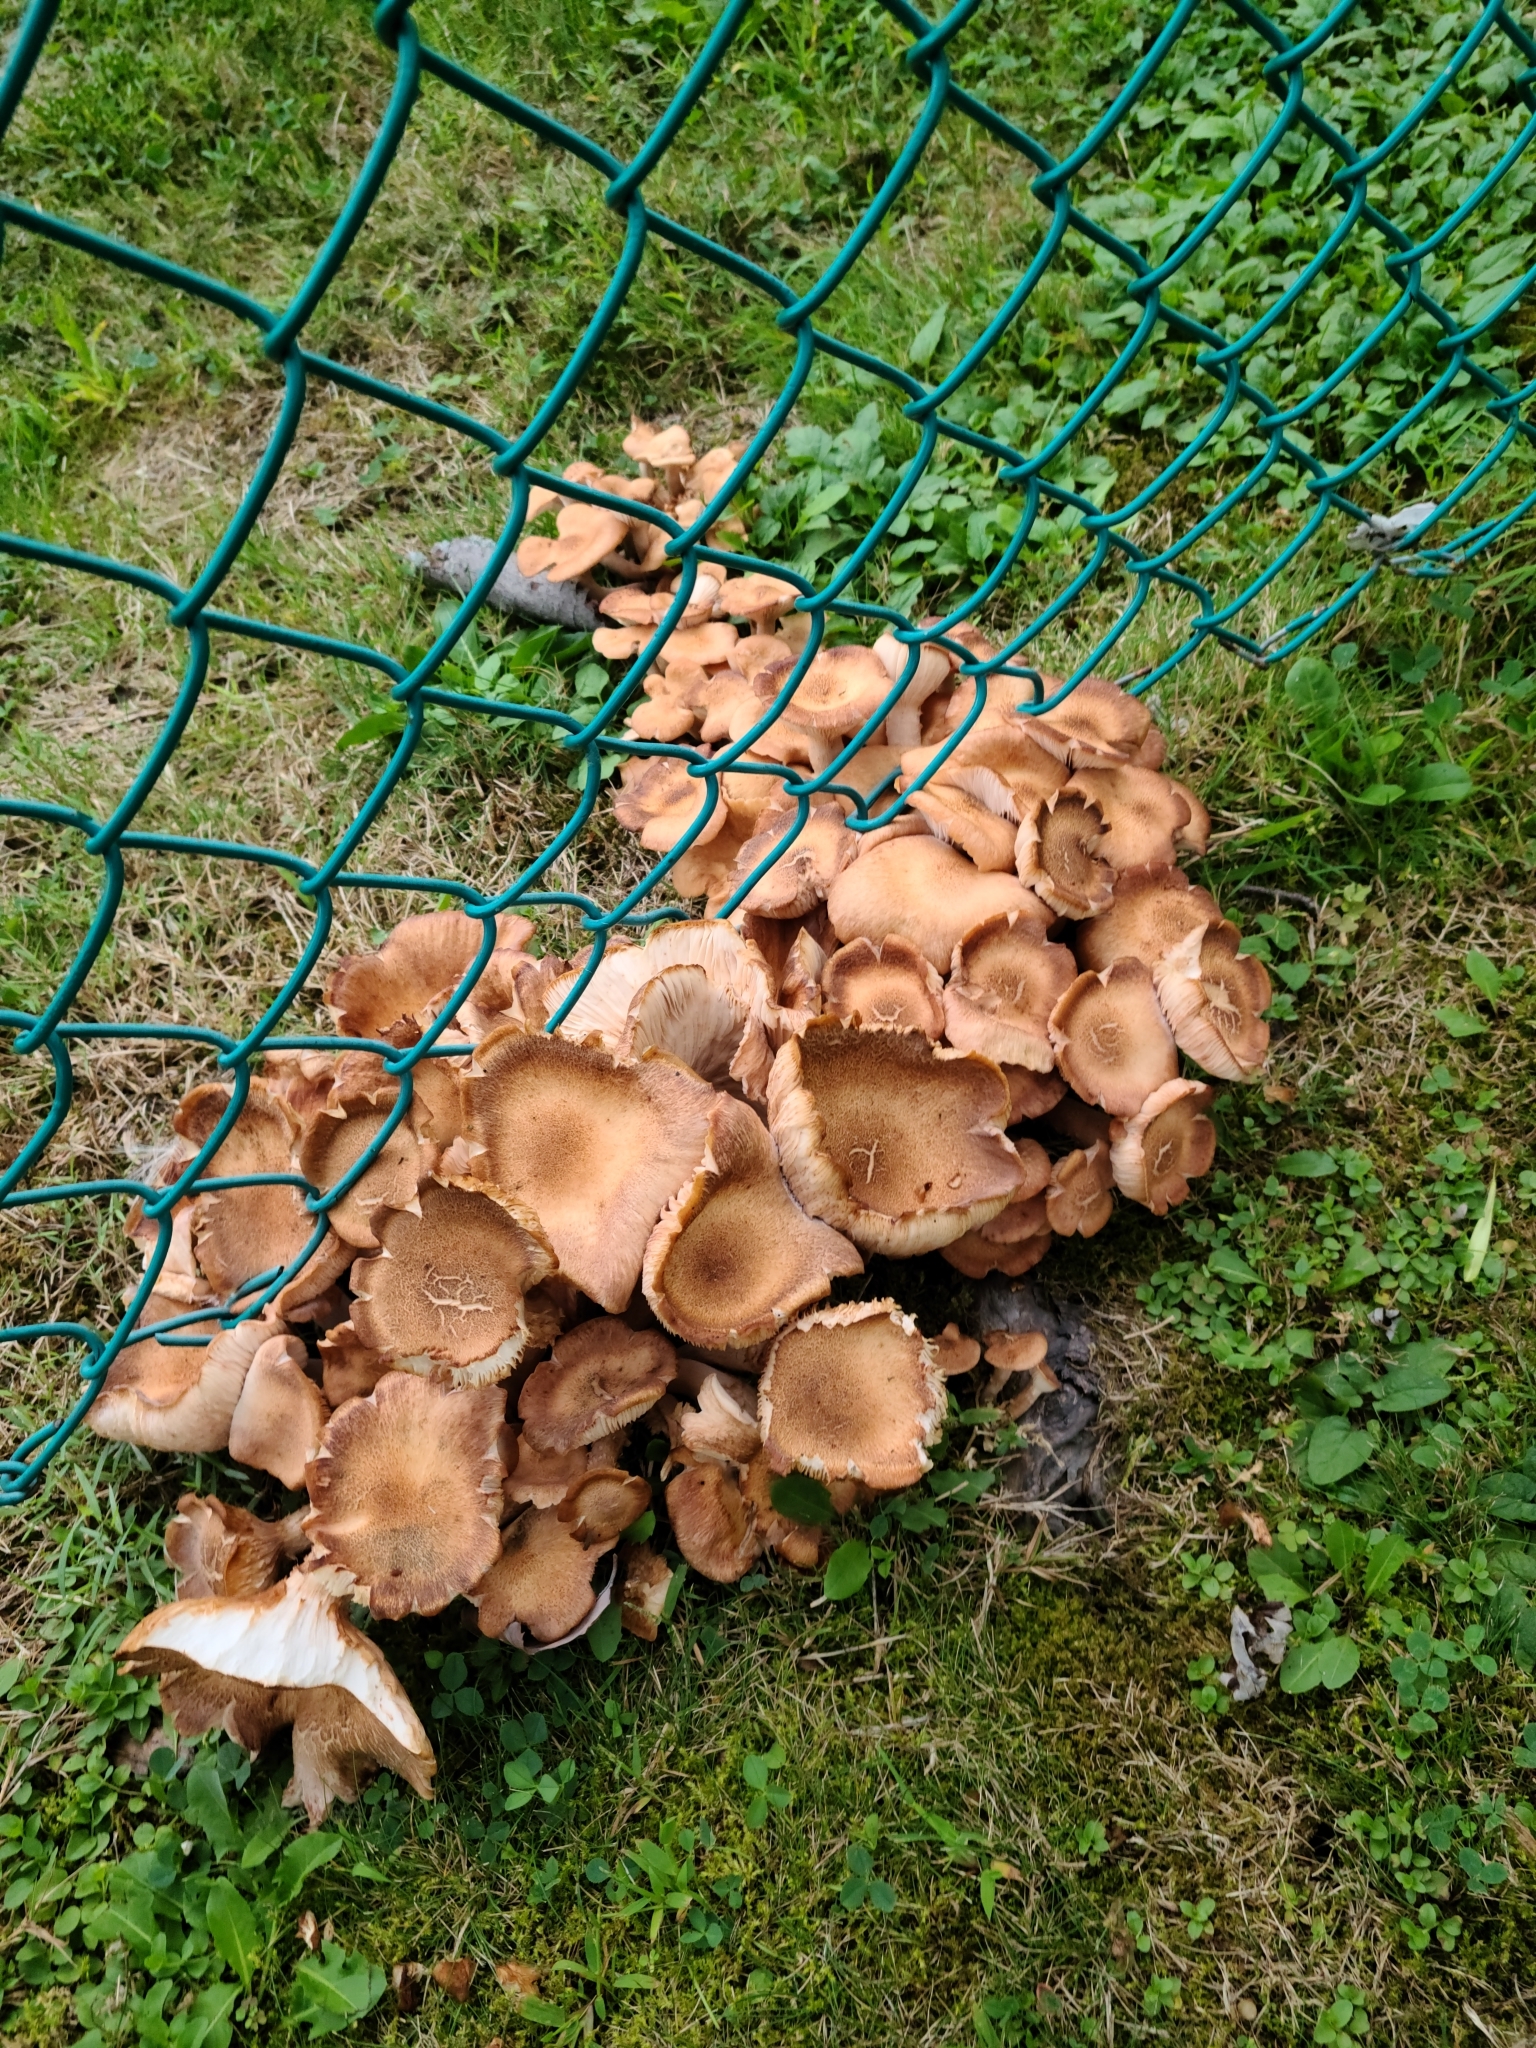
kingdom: Fungi
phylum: Basidiomycota
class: Agaricomycetes
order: Agaricales
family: Physalacriaceae
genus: Desarmillaria
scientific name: Desarmillaria caespitosa
